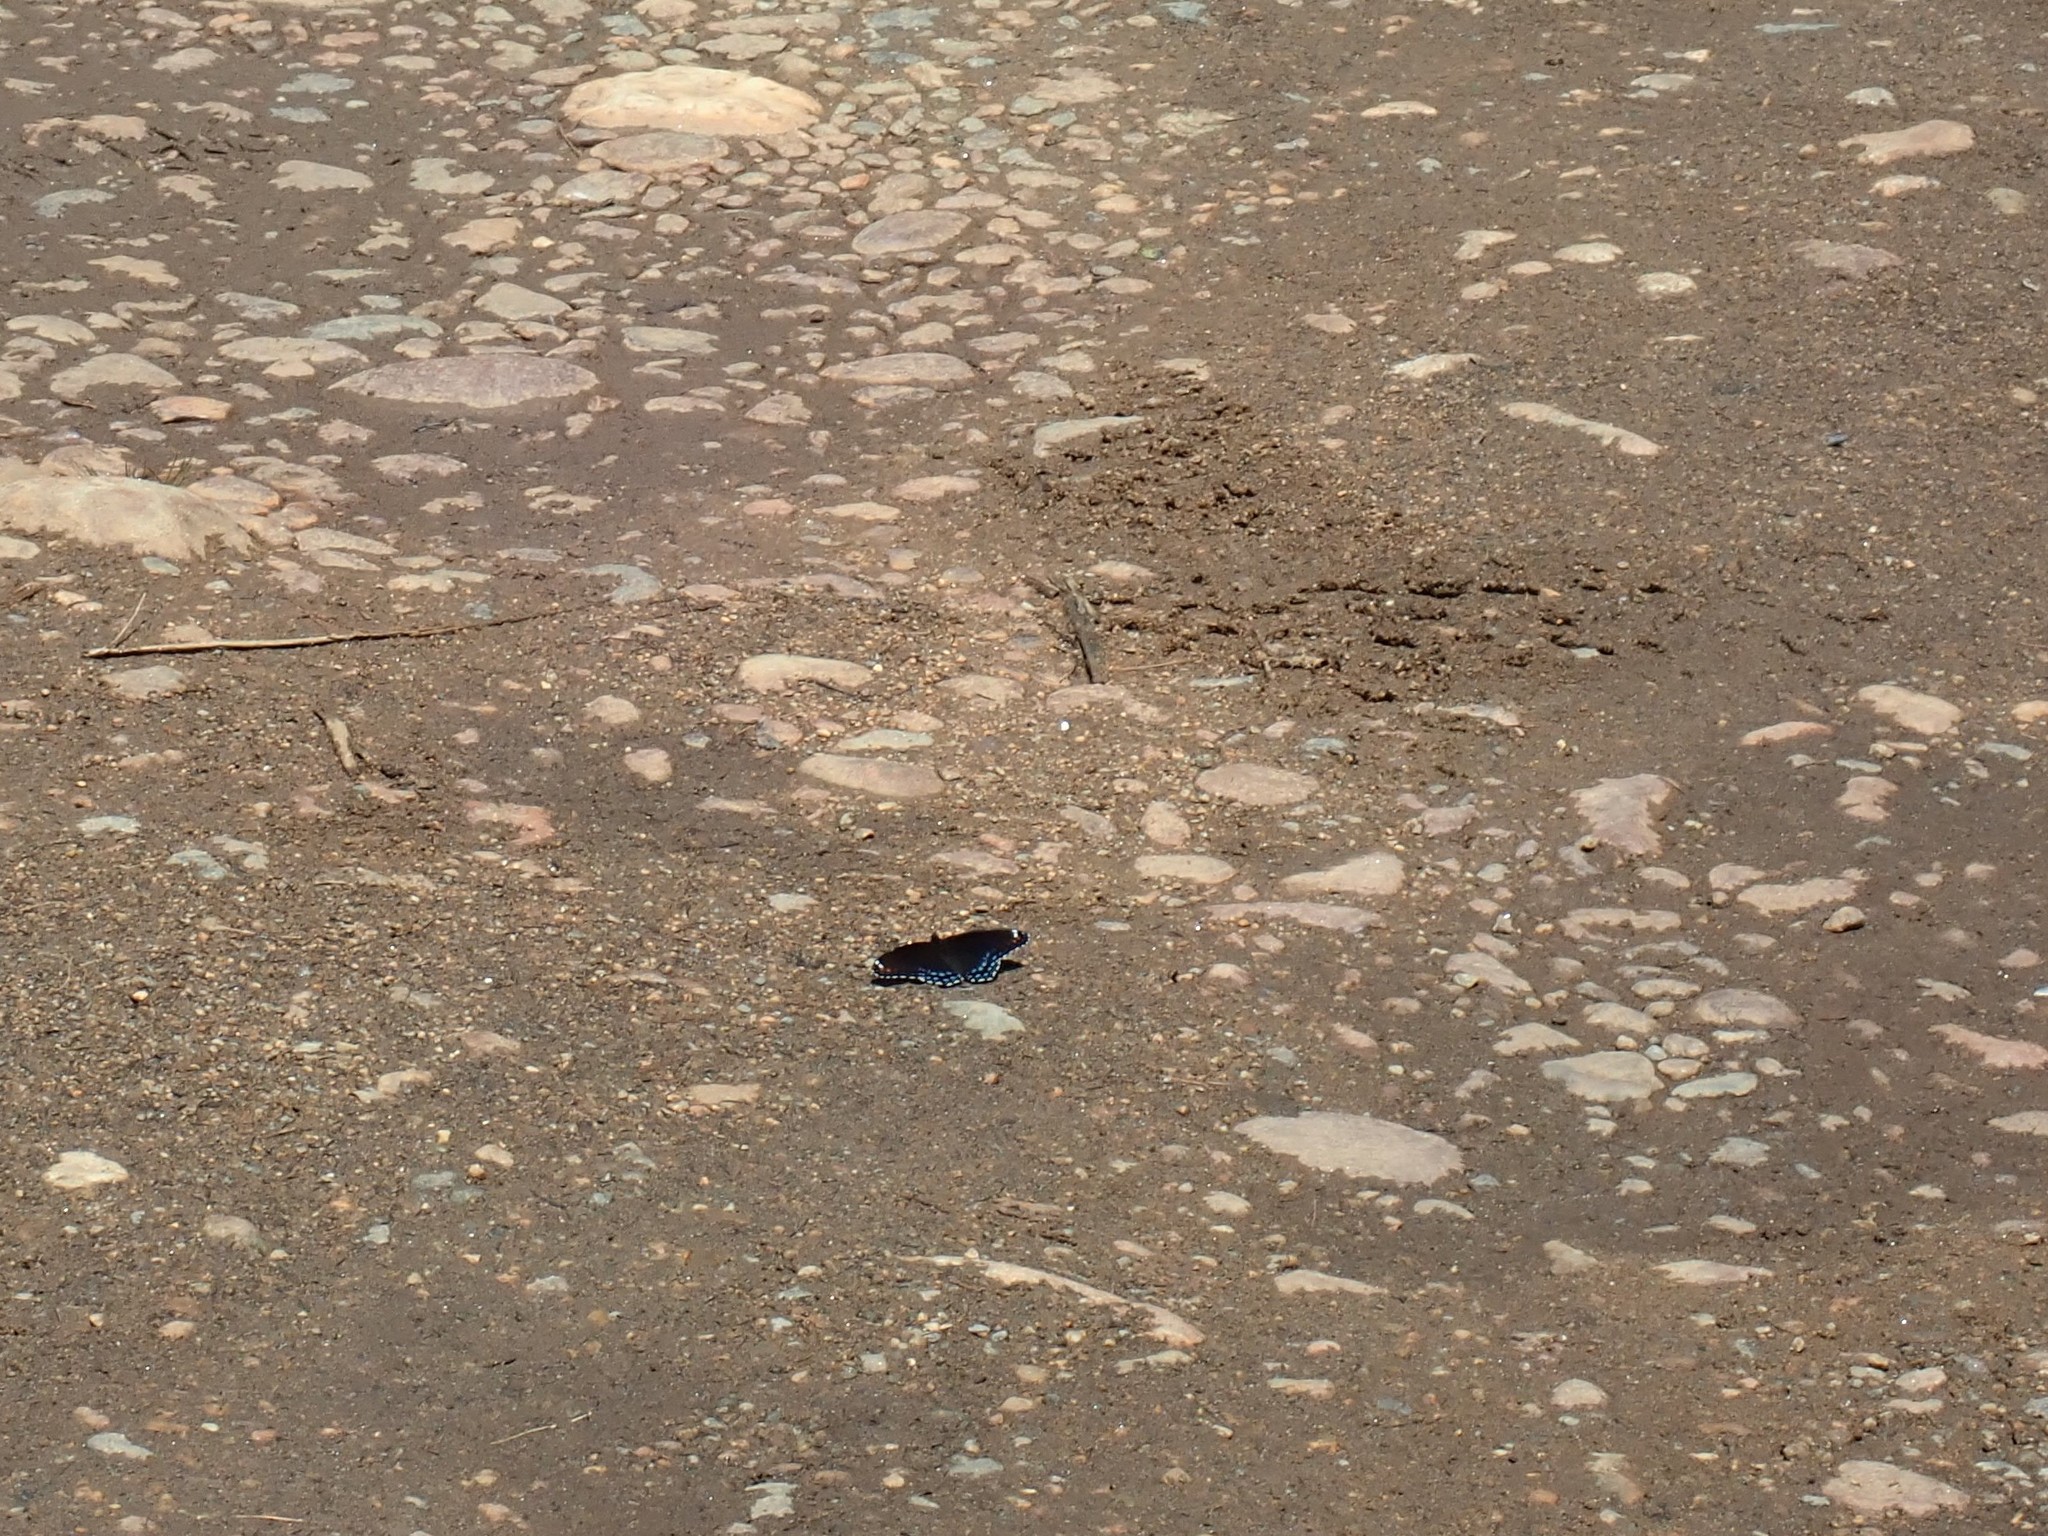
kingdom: Animalia
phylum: Arthropoda
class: Insecta
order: Lepidoptera
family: Nymphalidae
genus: Limenitis
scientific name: Limenitis astyanax
